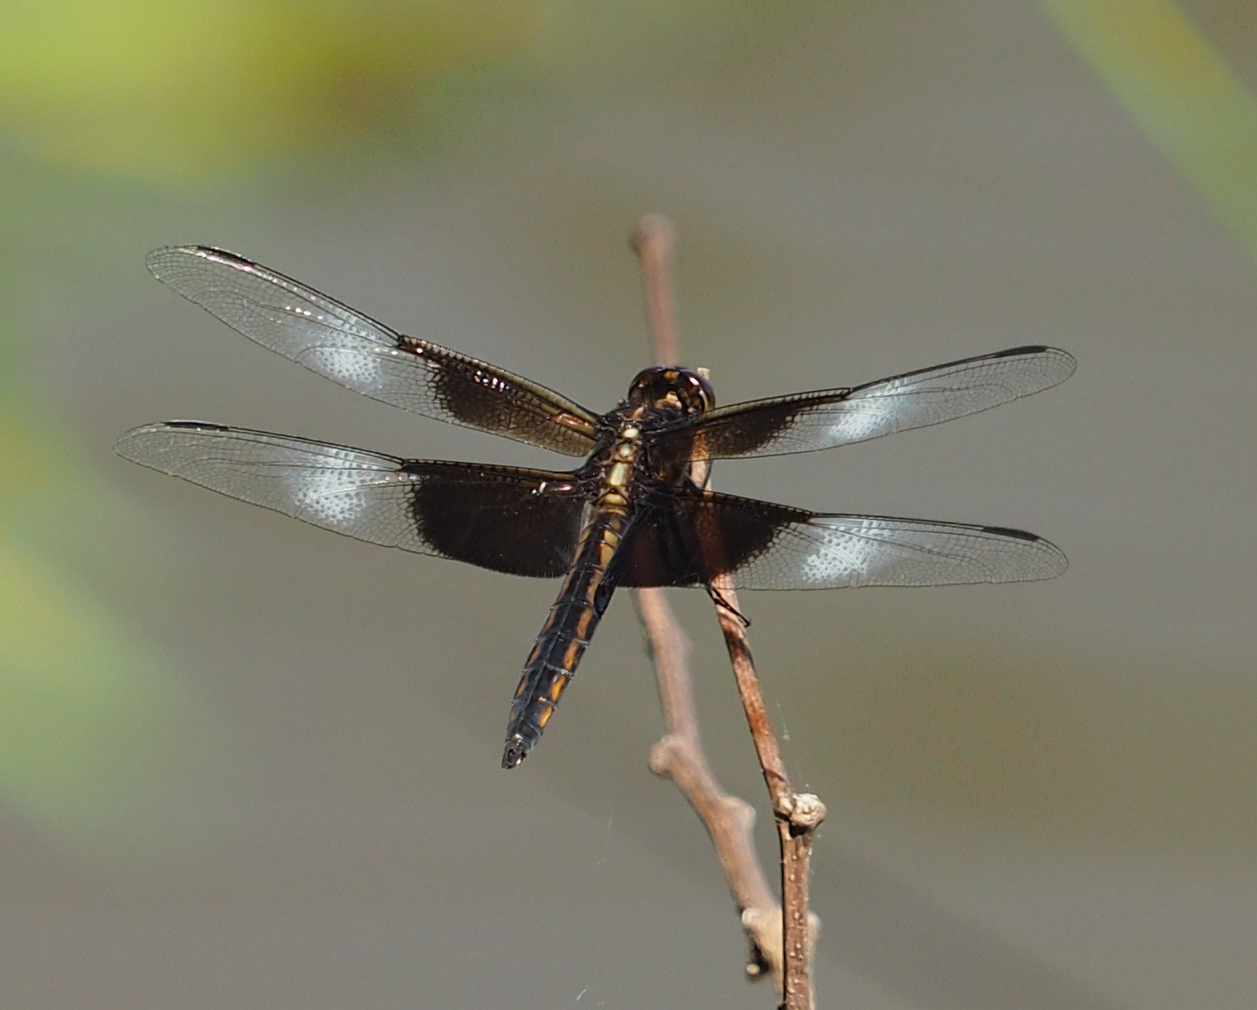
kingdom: Animalia
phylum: Arthropoda
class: Insecta
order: Odonata
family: Libellulidae
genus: Libellula
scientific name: Libellula luctuosa
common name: Widow skimmer
